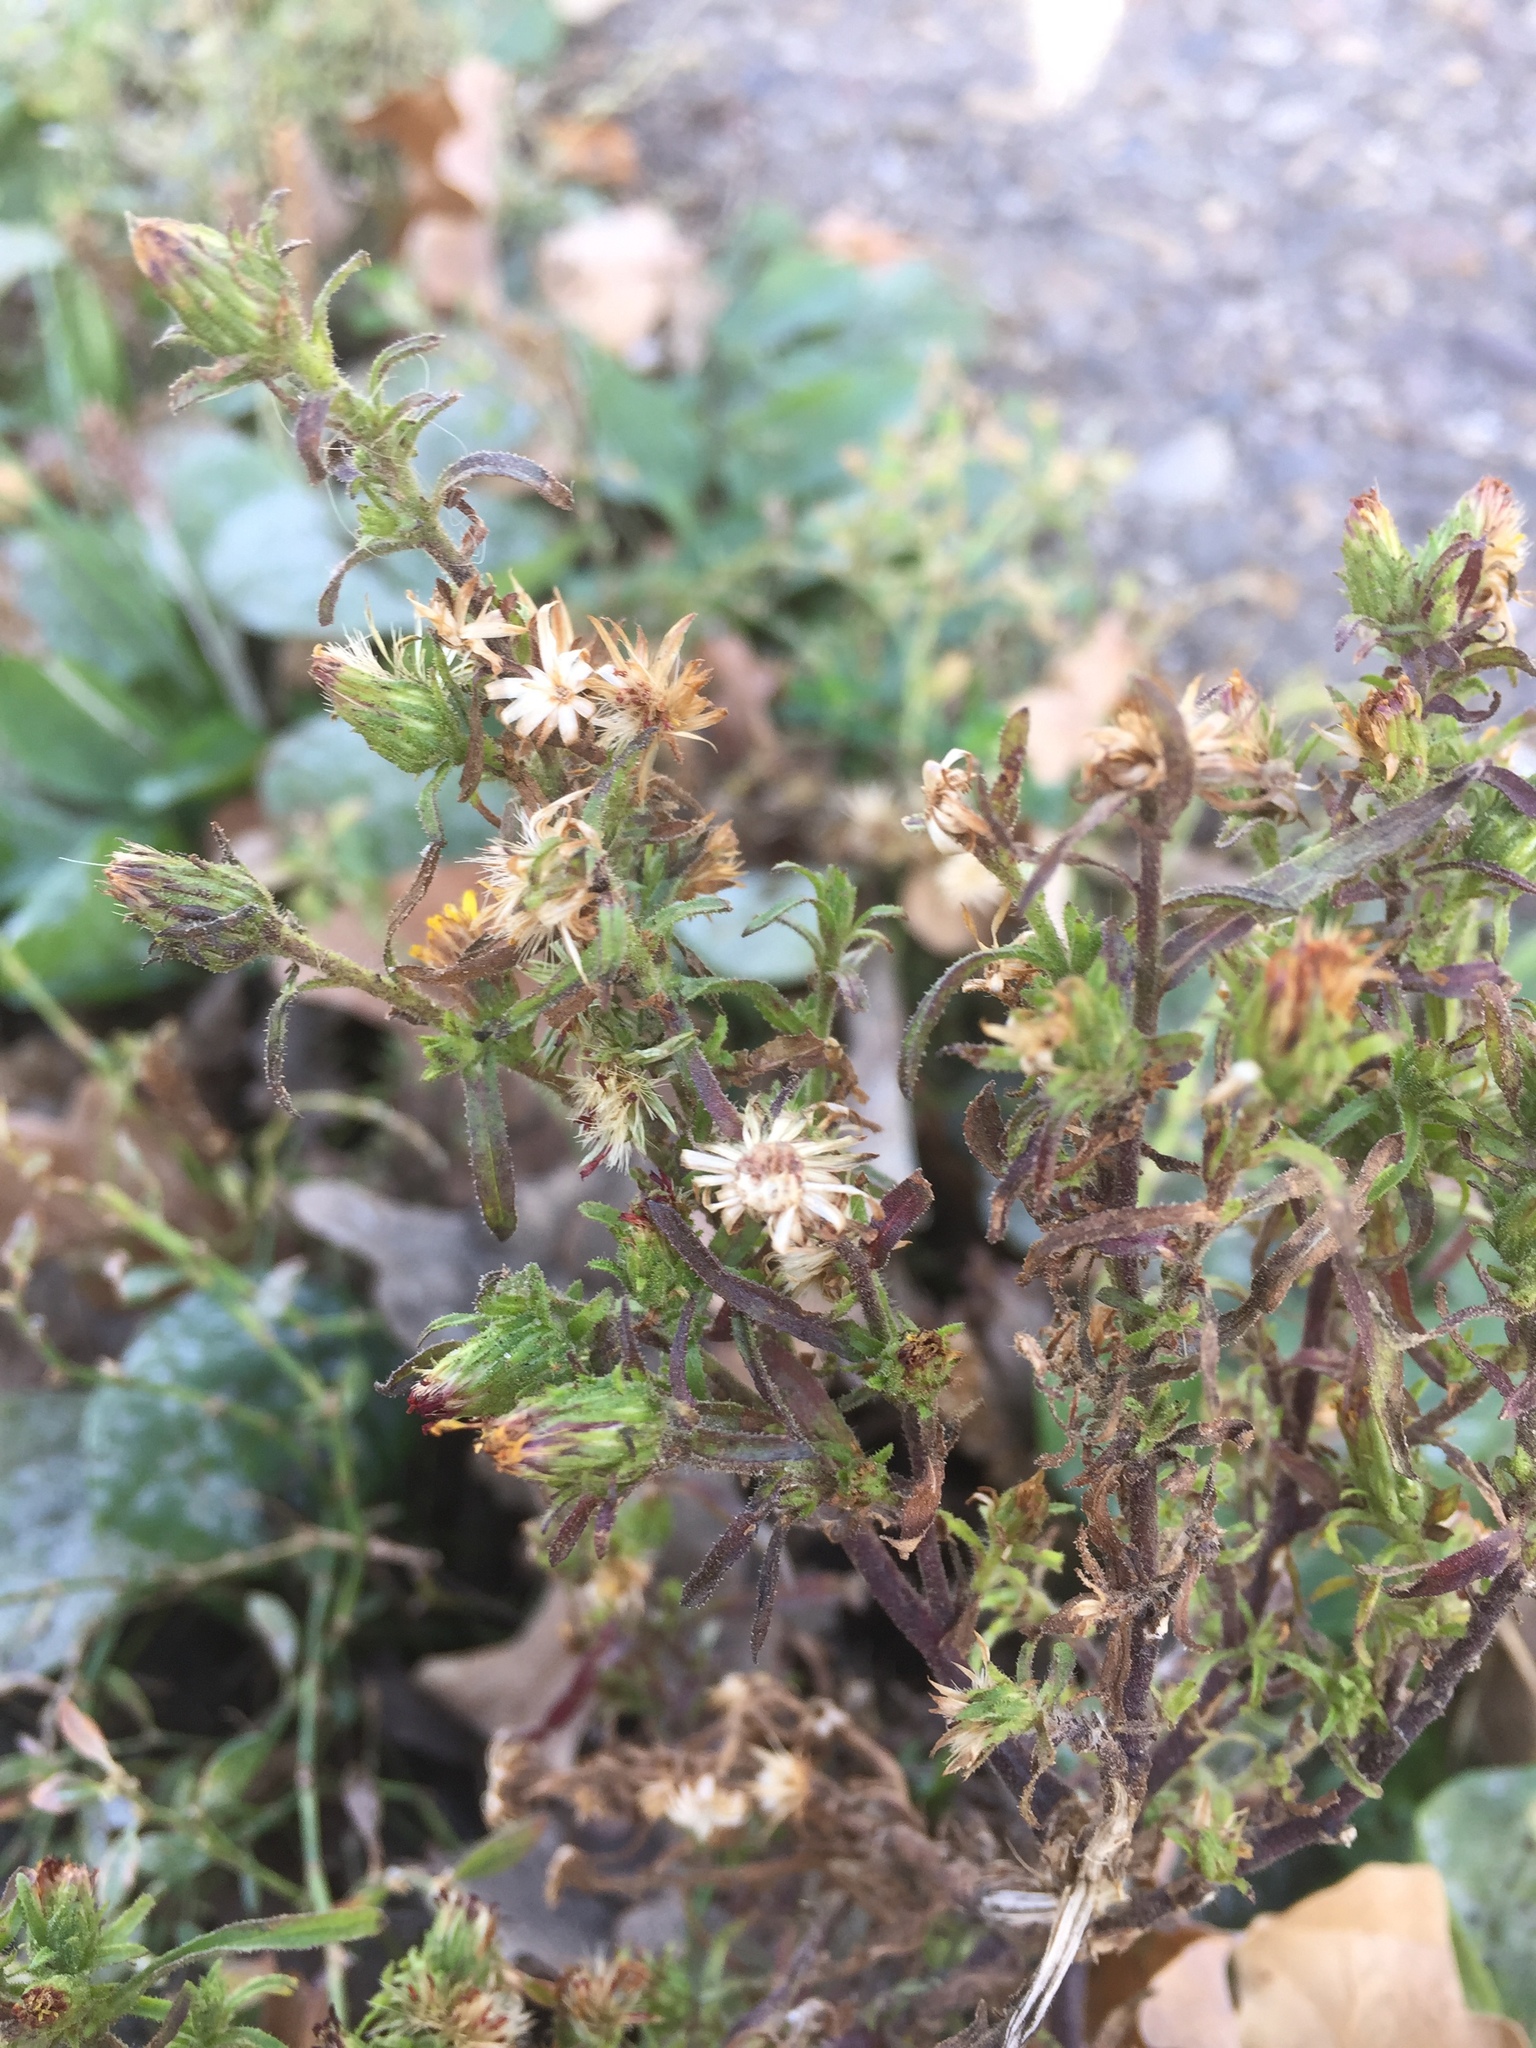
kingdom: Plantae
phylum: Tracheophyta
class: Magnoliopsida
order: Asterales
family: Asteraceae
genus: Dittrichia
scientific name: Dittrichia graveolens
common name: Stinking fleabane
